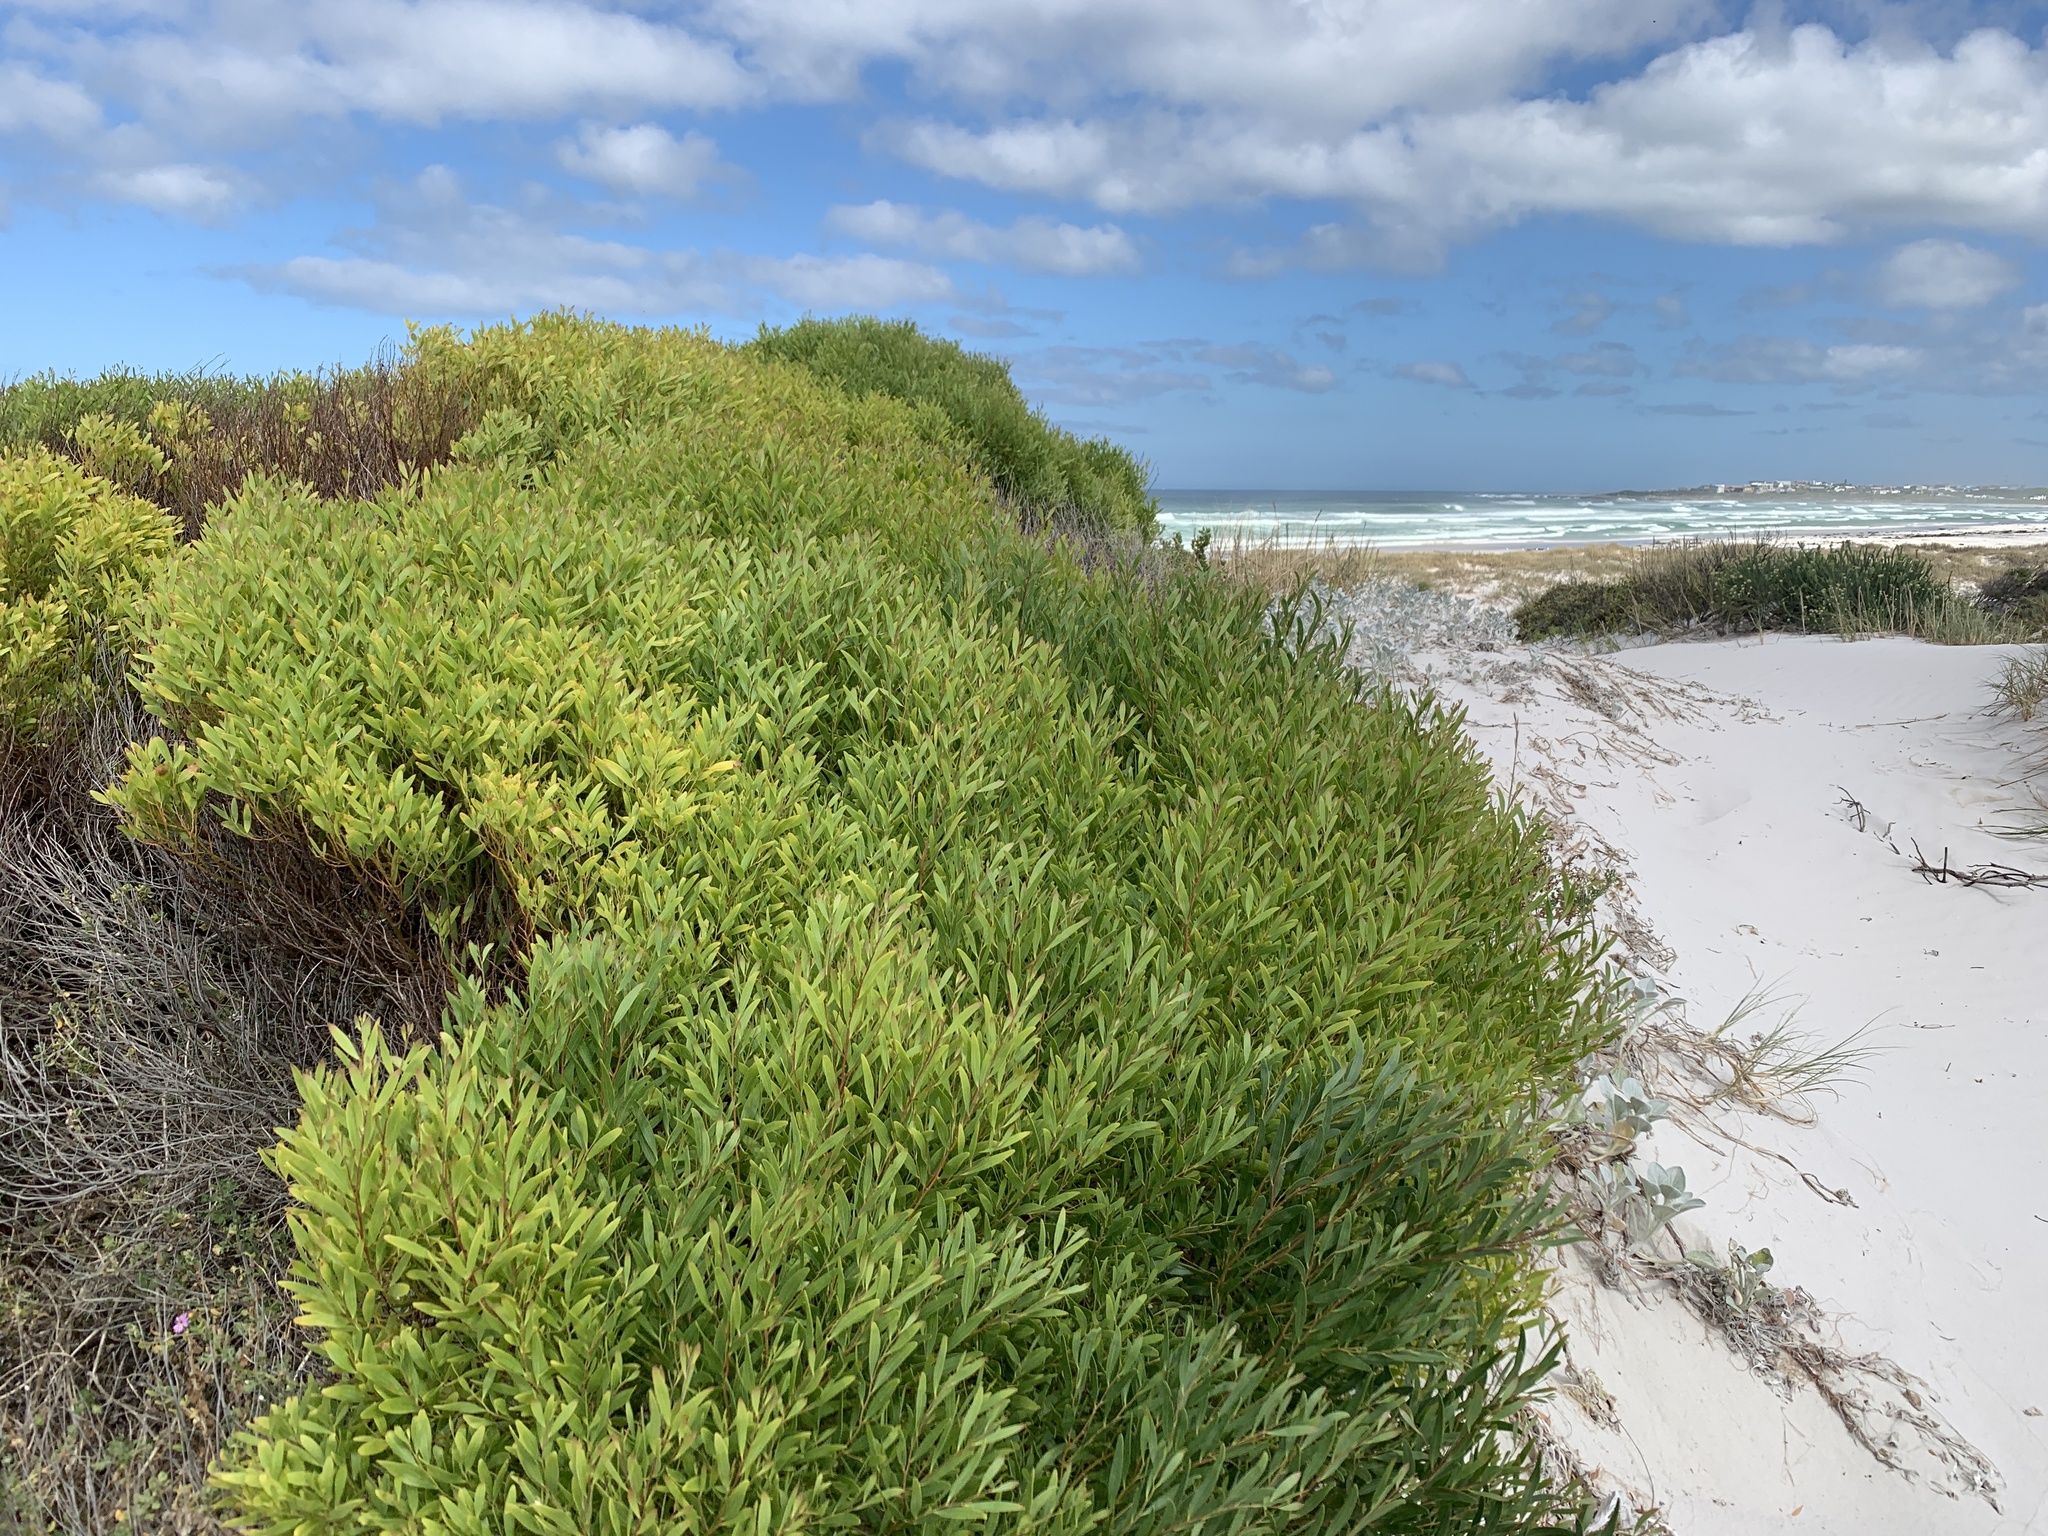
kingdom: Plantae
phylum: Tracheophyta
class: Magnoliopsida
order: Fabales
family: Fabaceae
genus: Acacia
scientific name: Acacia cyclops
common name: Coastal wattle
